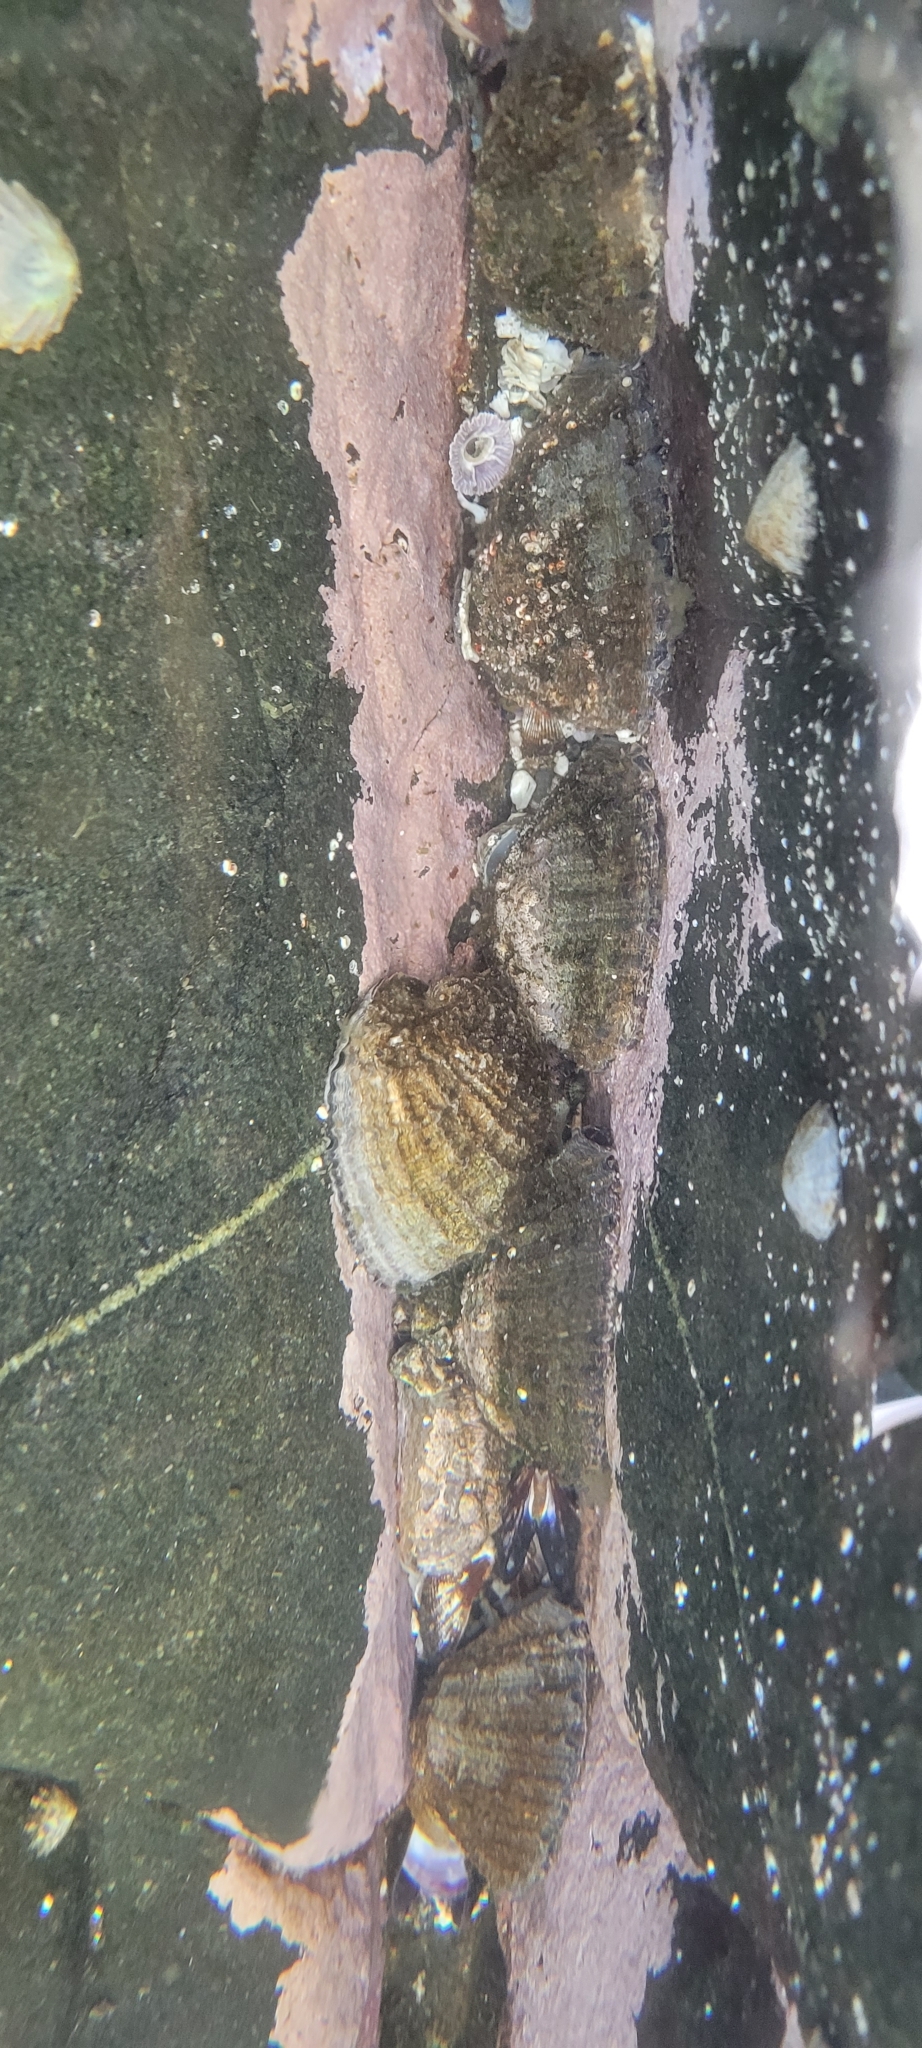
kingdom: Animalia
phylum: Mollusca
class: Gastropoda
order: Neogastropoda
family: Muricidae
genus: Concholepas
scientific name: Concholepas concholepas
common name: Chilean abalone
